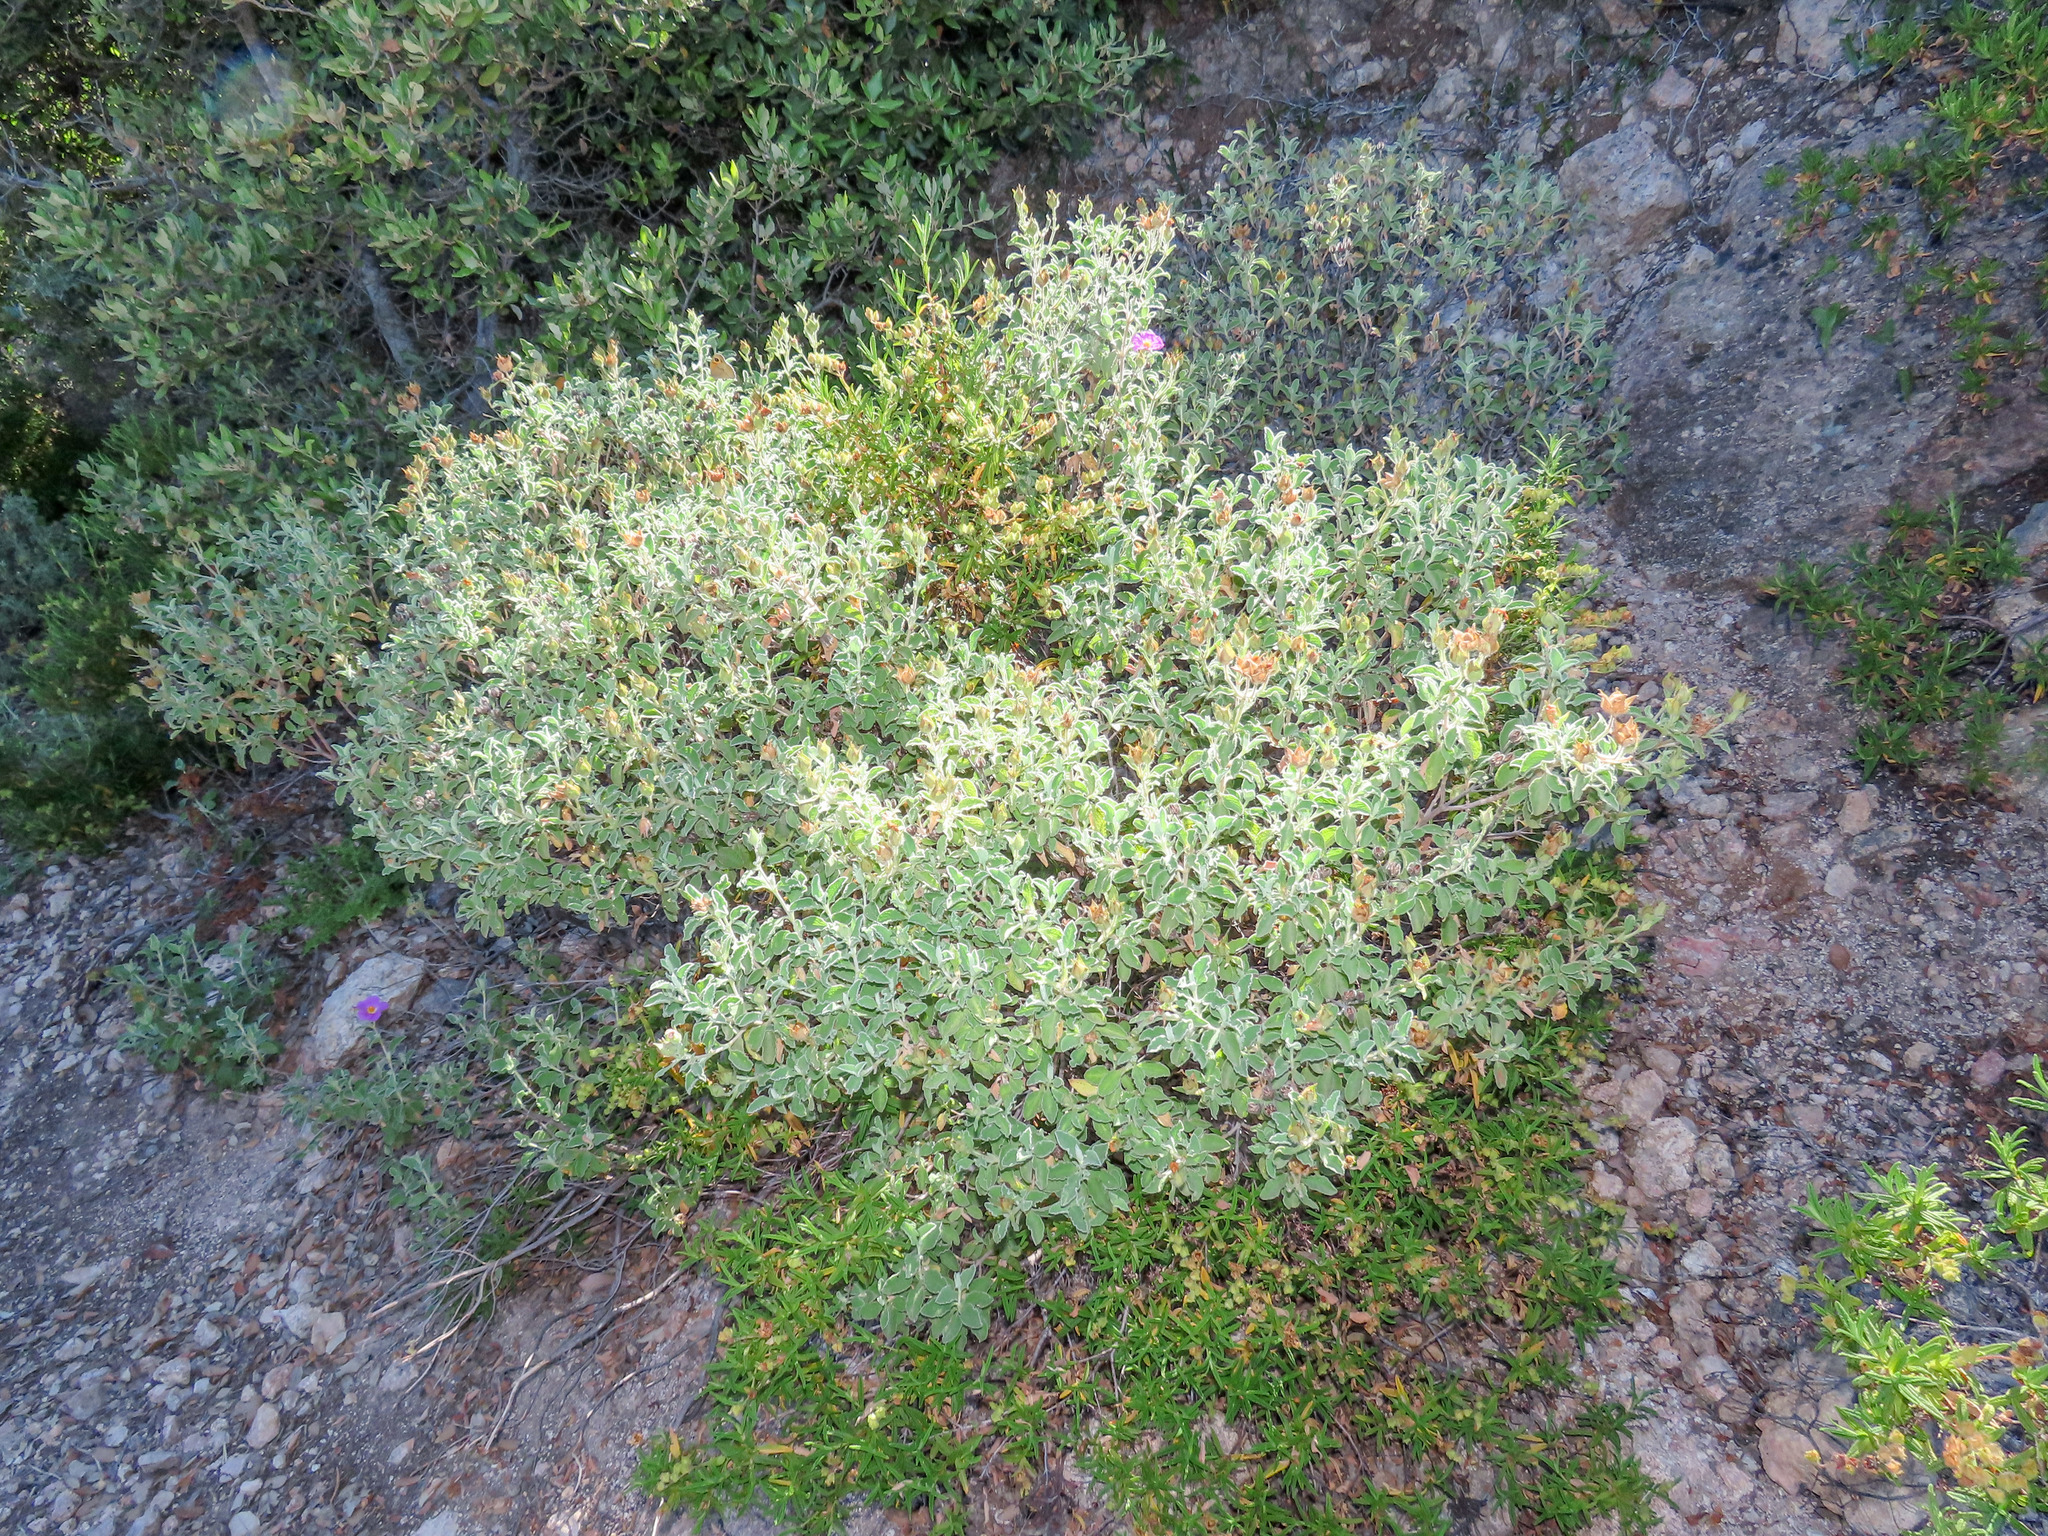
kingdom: Plantae
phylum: Tracheophyta
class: Magnoliopsida
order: Malvales
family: Cistaceae
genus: Cistus
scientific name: Cistus creticus
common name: Cretan rockrose
